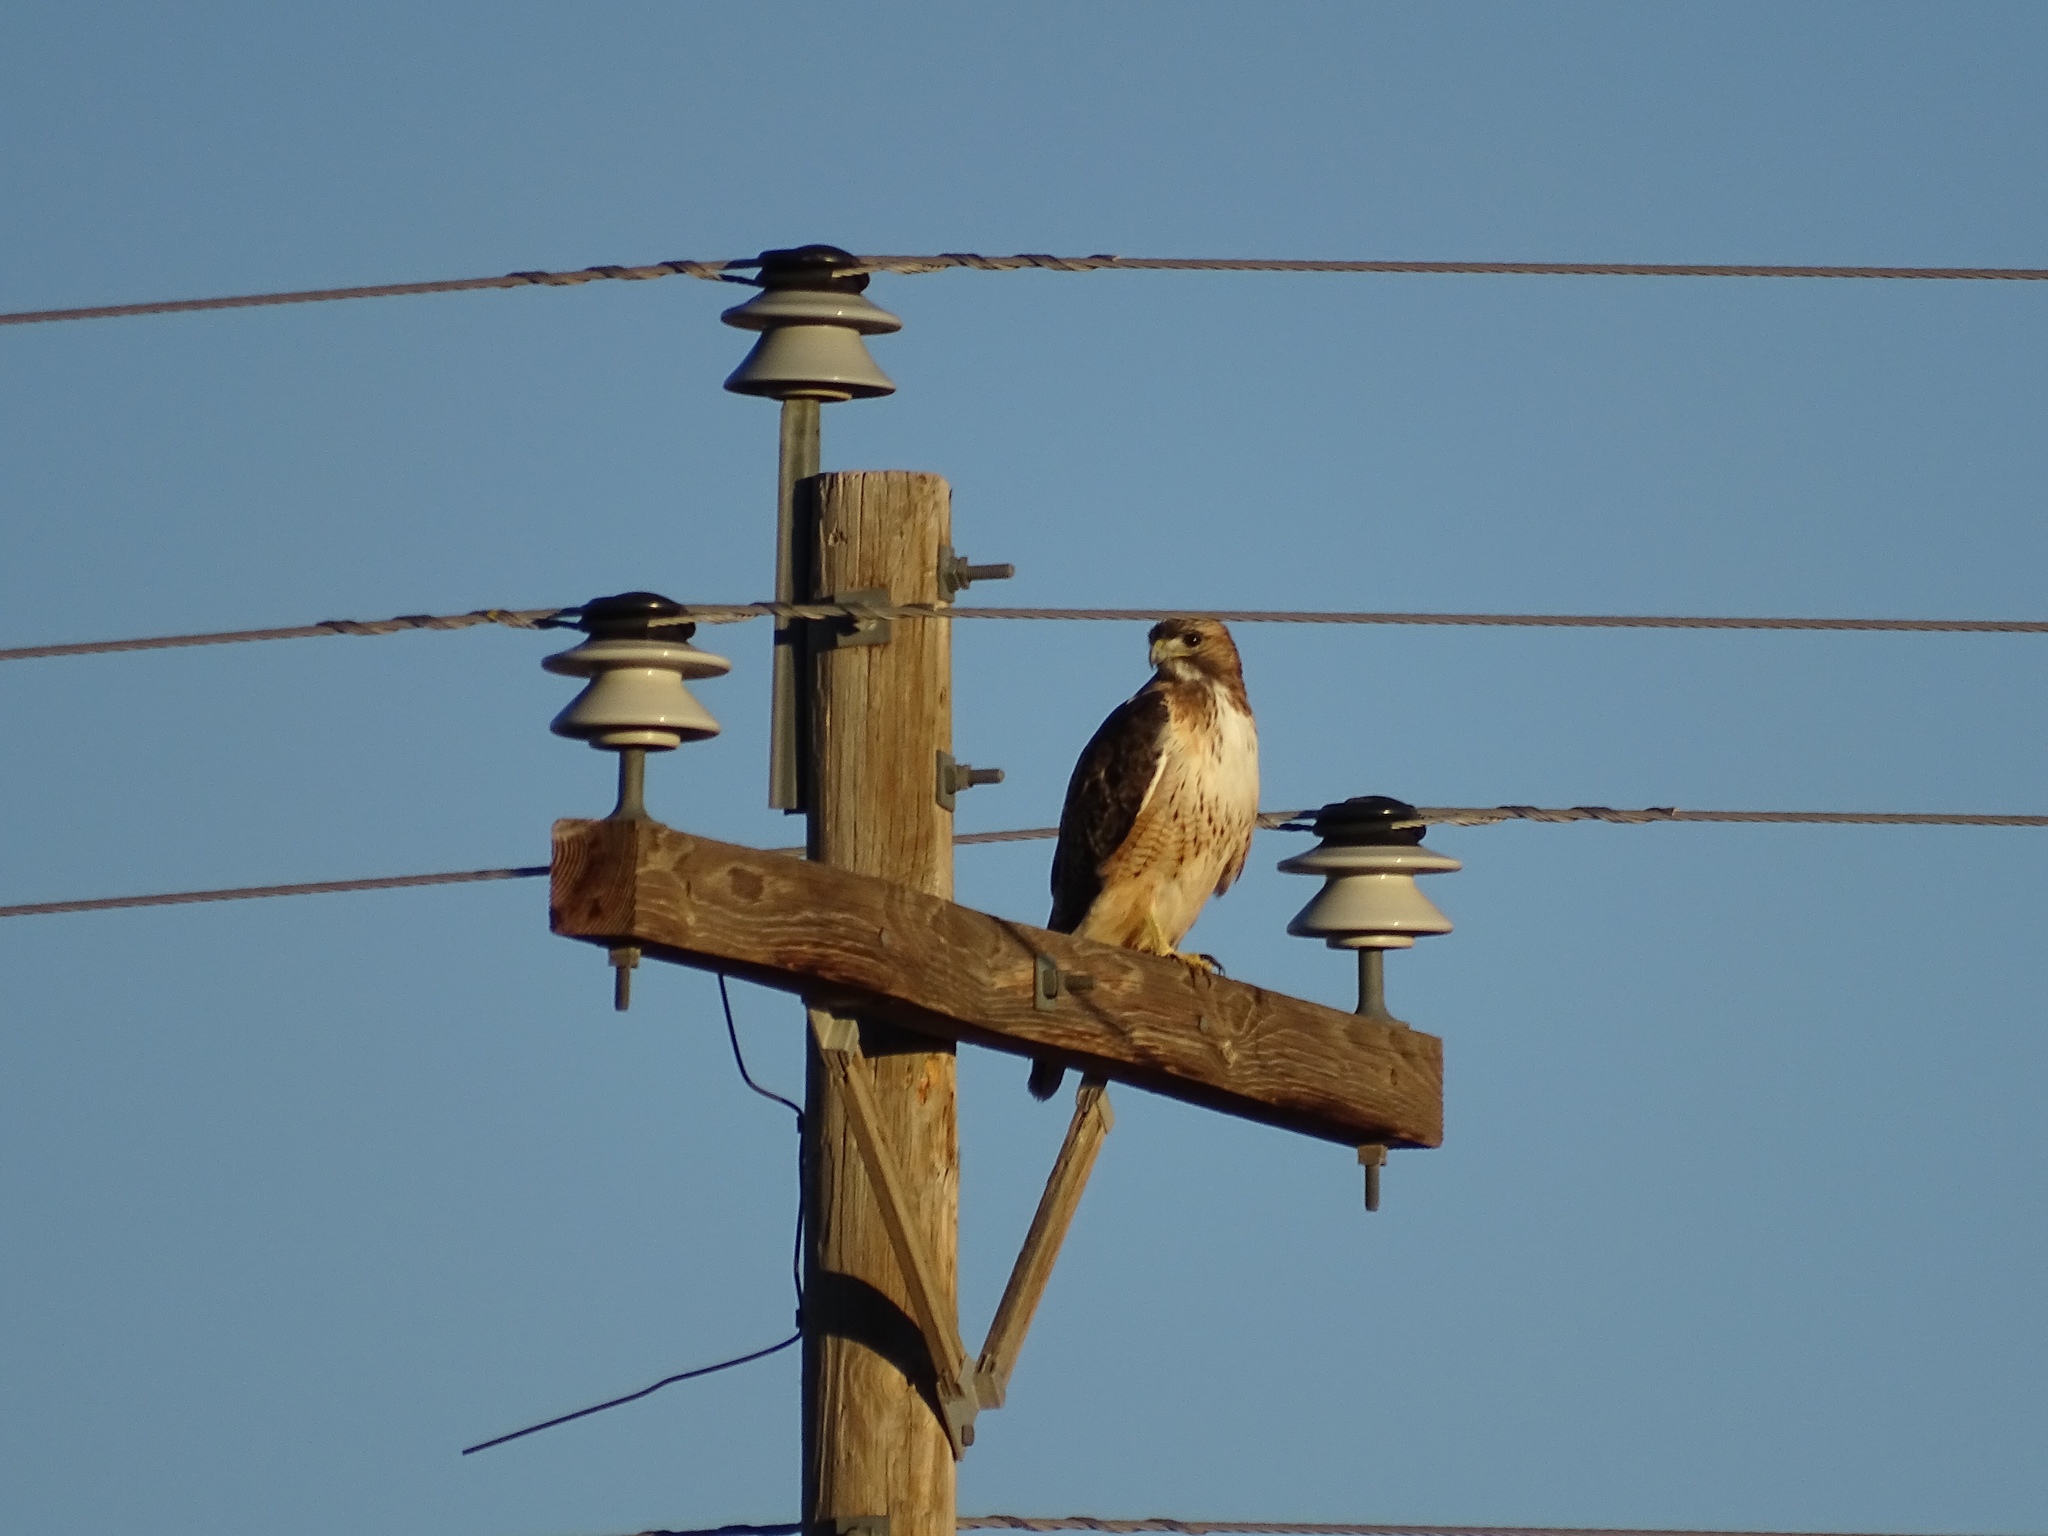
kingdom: Animalia
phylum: Chordata
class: Aves
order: Accipitriformes
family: Accipitridae
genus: Buteo
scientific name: Buteo jamaicensis
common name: Red-tailed hawk
